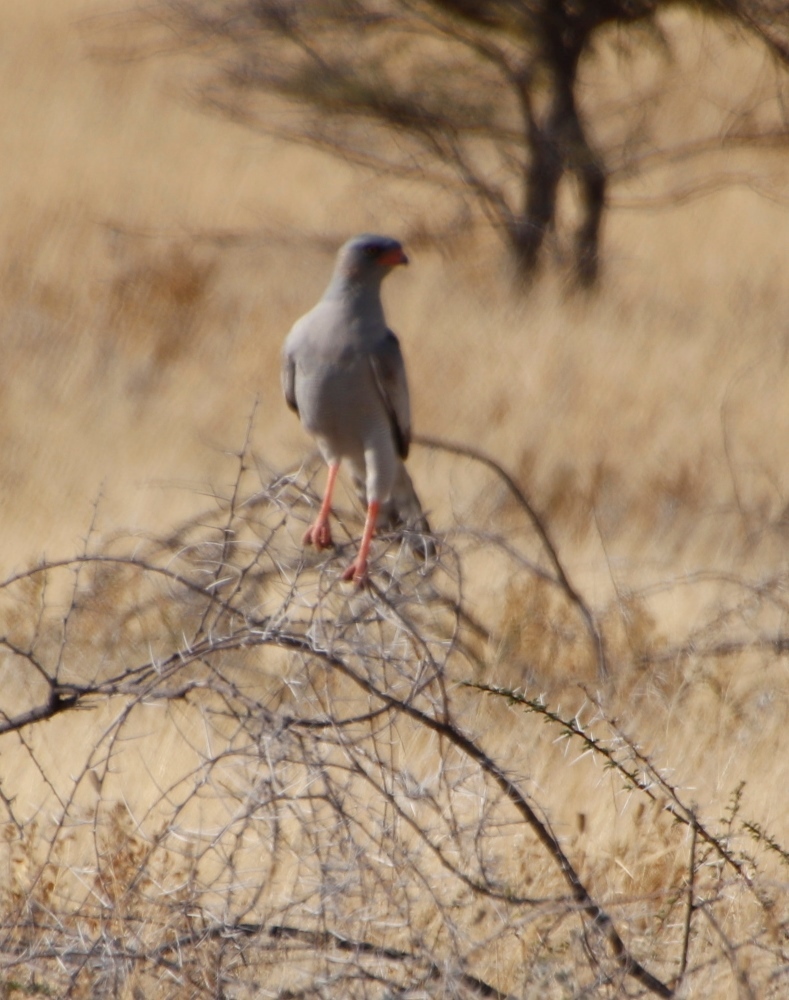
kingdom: Animalia
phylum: Chordata
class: Aves
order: Accipitriformes
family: Accipitridae
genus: Melierax
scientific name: Melierax canorus
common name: Pale chanting-goshawk
